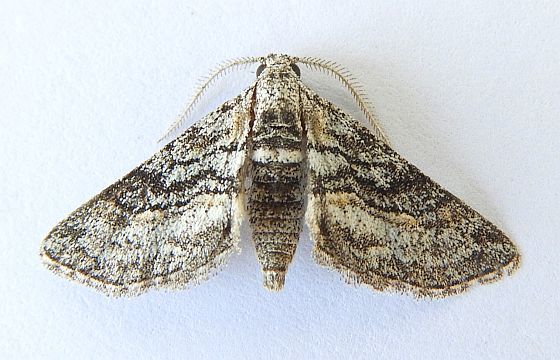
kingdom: Animalia
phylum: Arthropoda
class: Insecta
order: Lepidoptera
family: Geometridae
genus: Eubarnesia
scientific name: Eubarnesia ritaria
